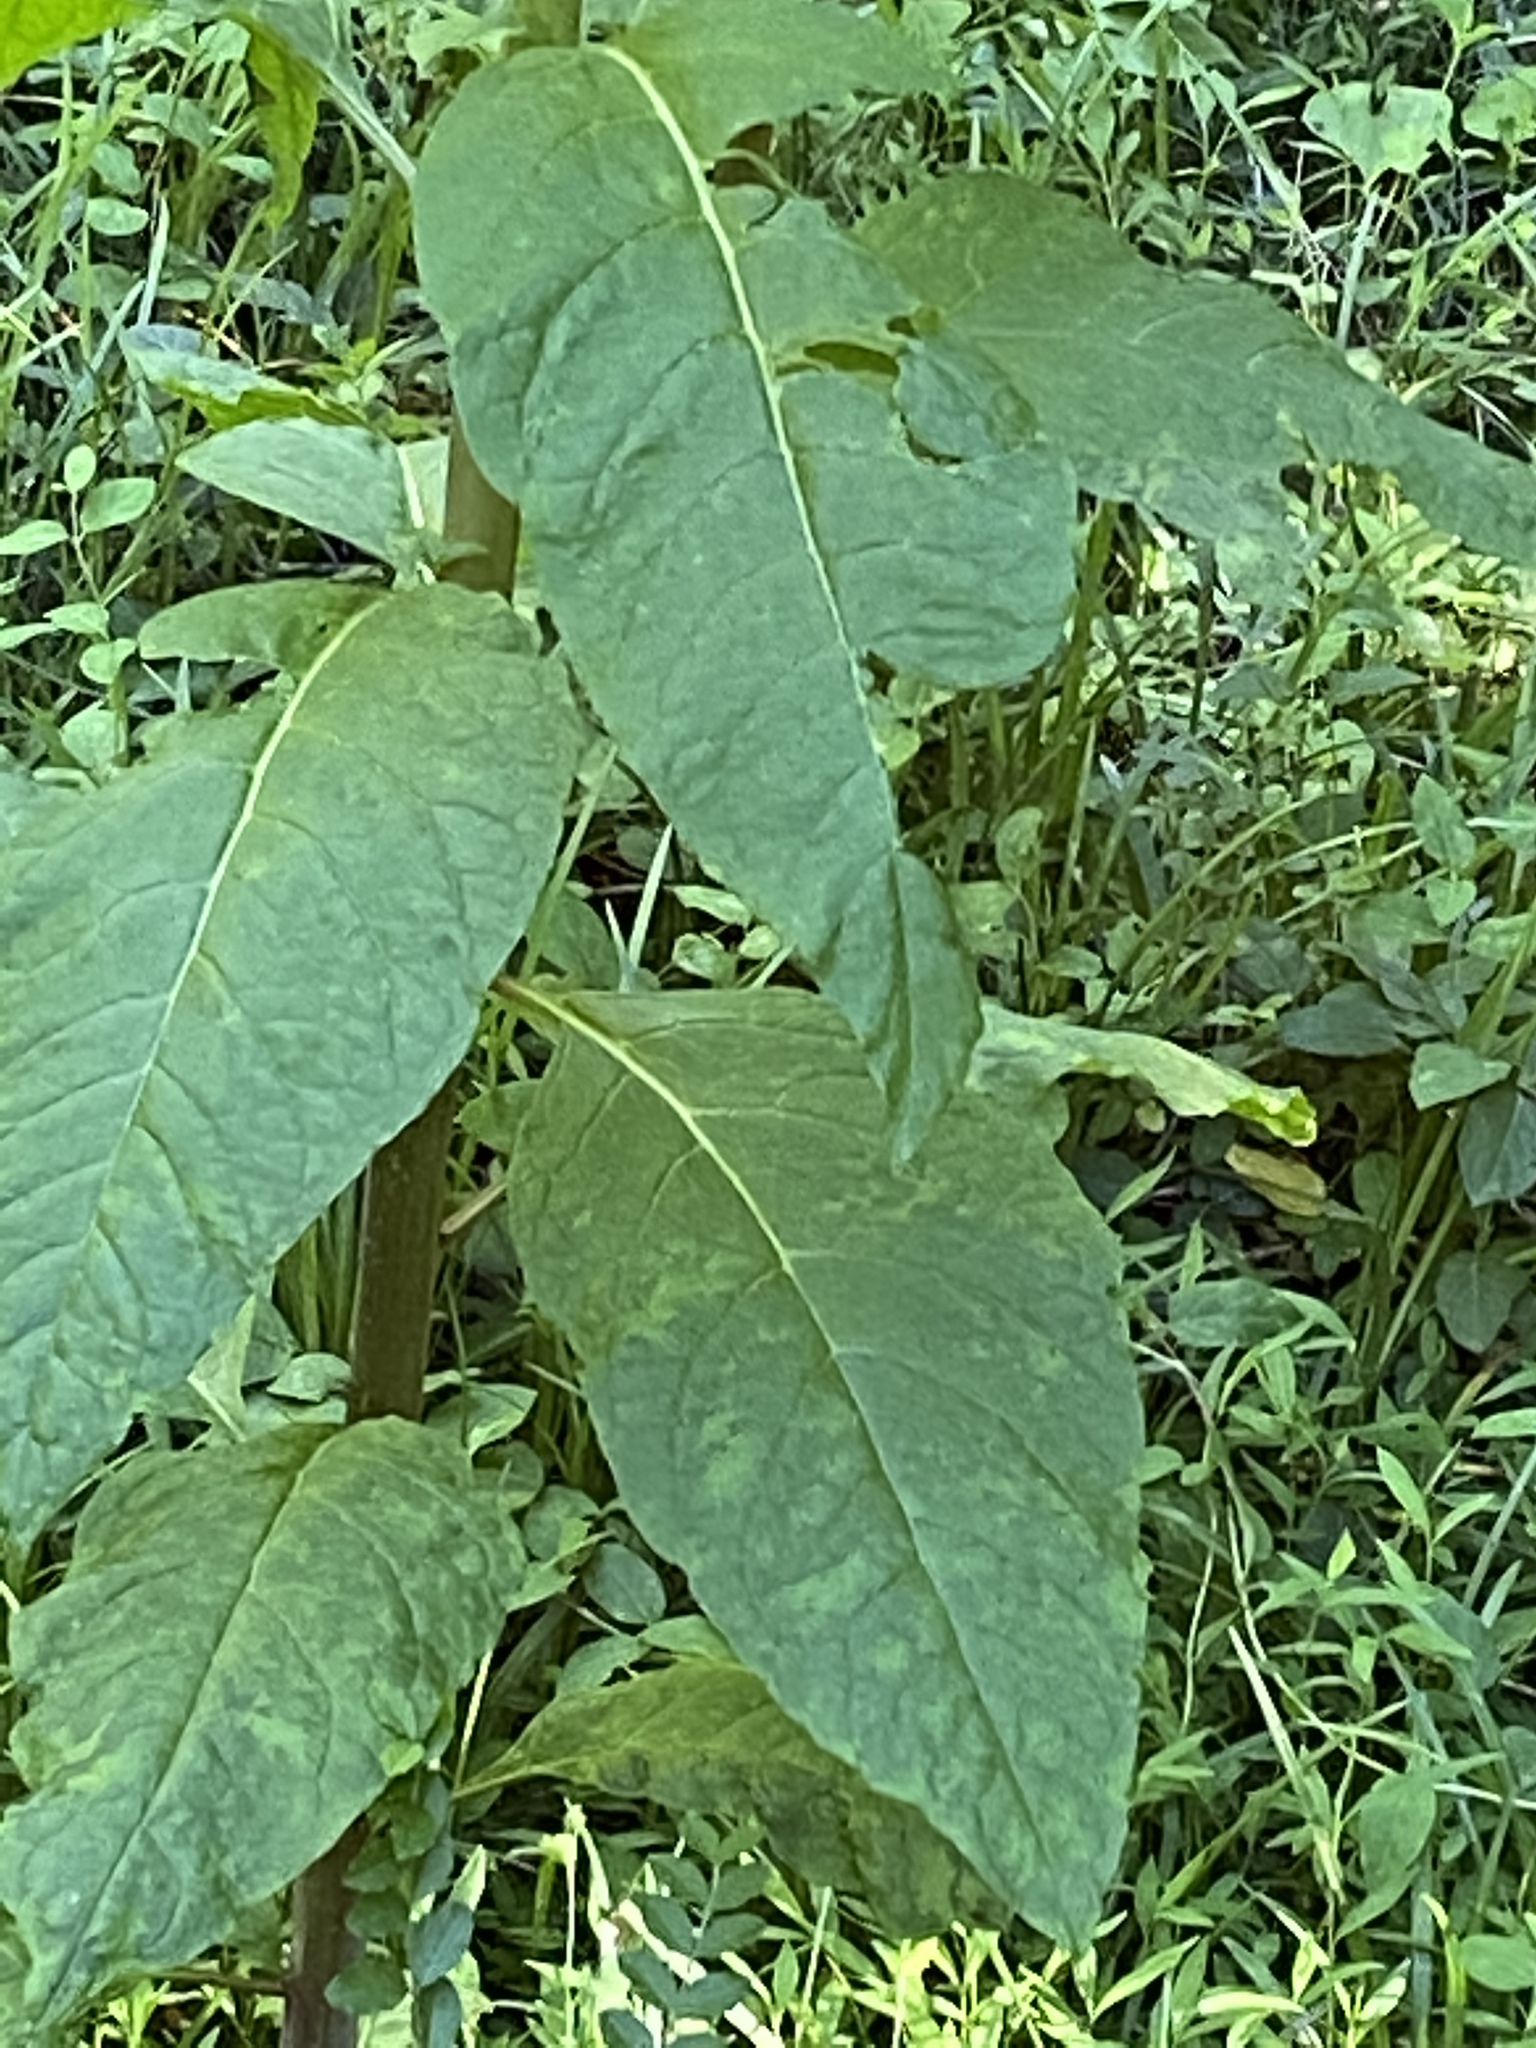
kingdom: Plantae
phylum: Tracheophyta
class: Magnoliopsida
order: Caryophyllales
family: Phytolaccaceae
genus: Phytolacca
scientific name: Phytolacca americana
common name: American pokeweed
